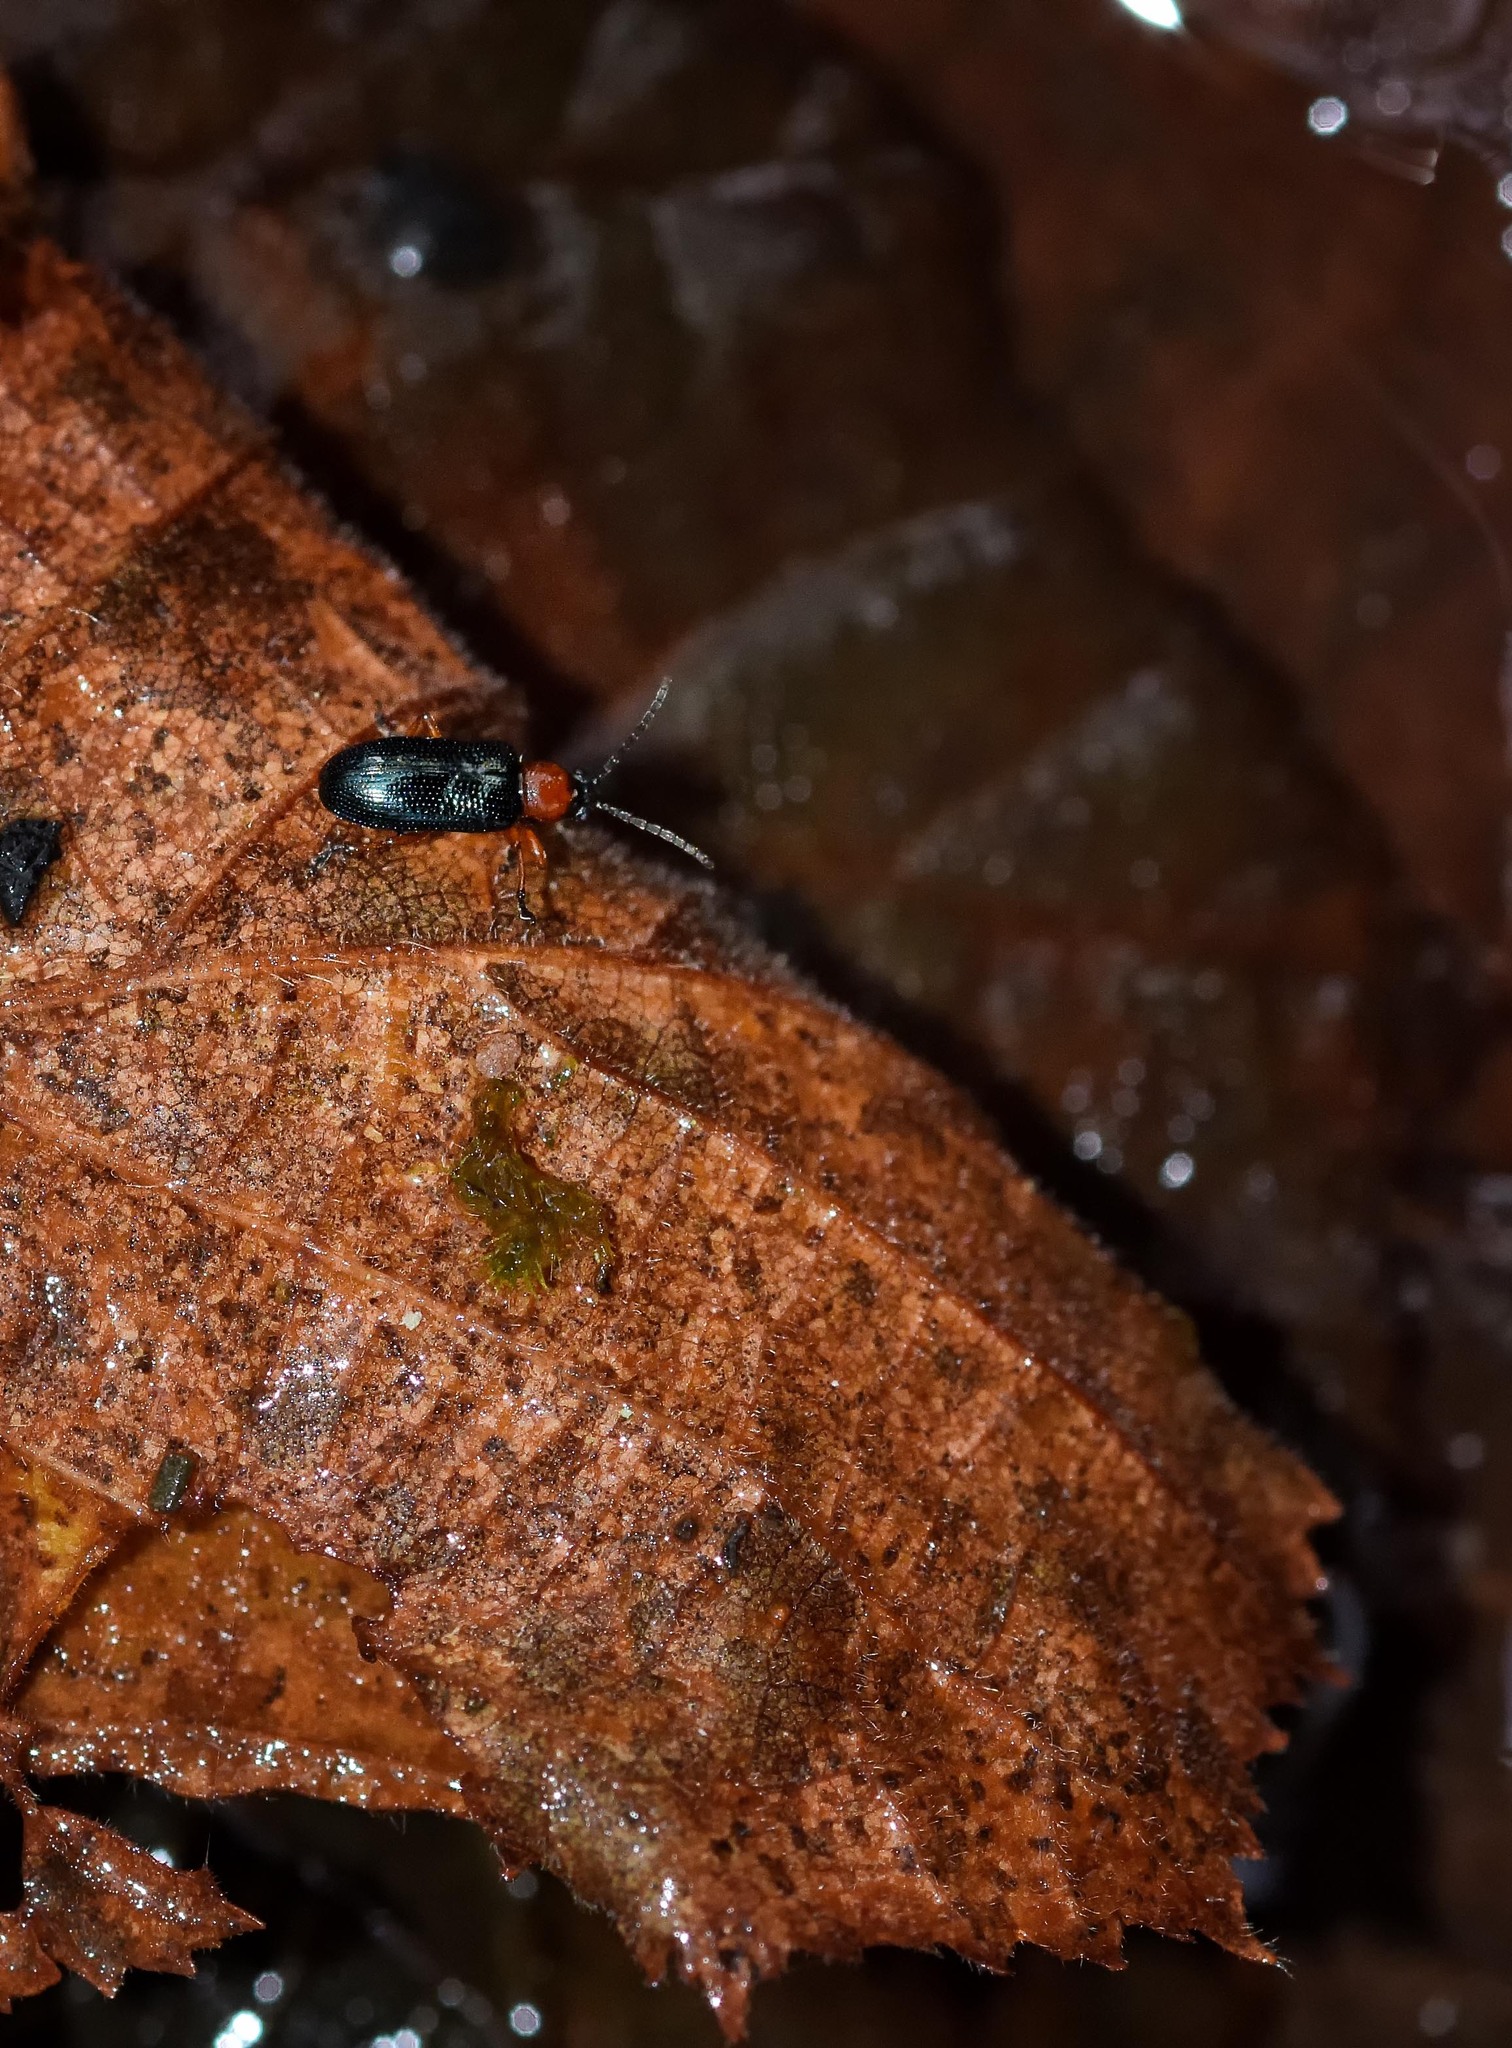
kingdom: Animalia
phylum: Arthropoda
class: Insecta
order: Coleoptera
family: Chrysomelidae
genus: Oulema
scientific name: Oulema
